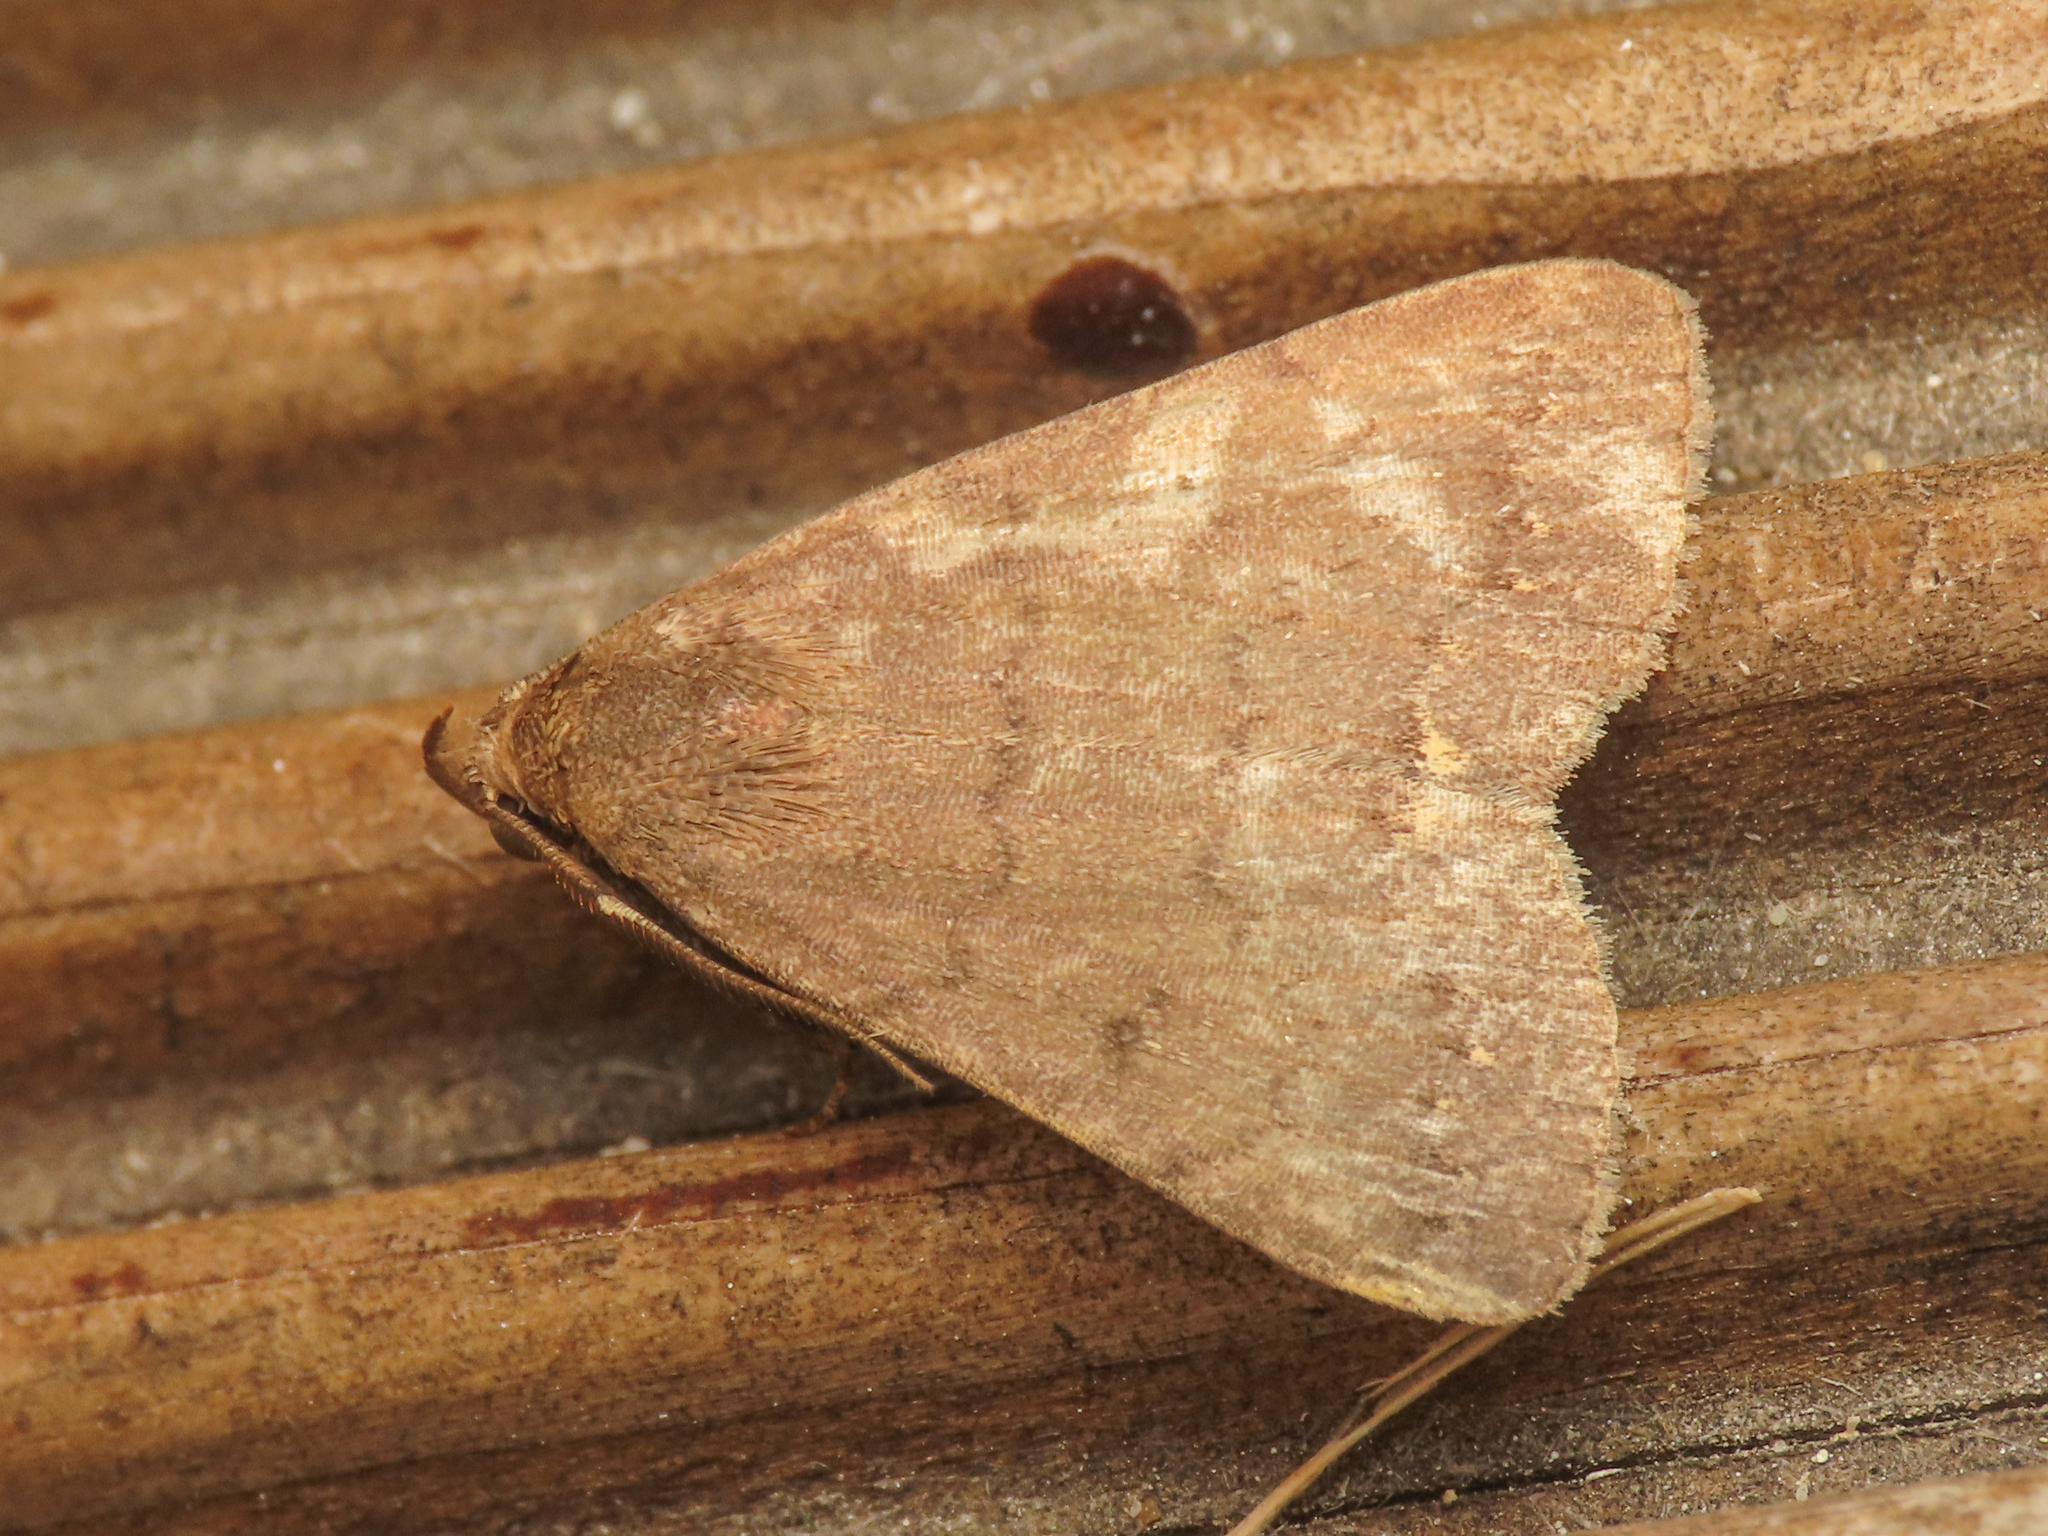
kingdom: Animalia
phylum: Arthropoda
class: Insecta
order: Lepidoptera
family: Erebidae
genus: Nodaria
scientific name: Nodaria nodosalis
